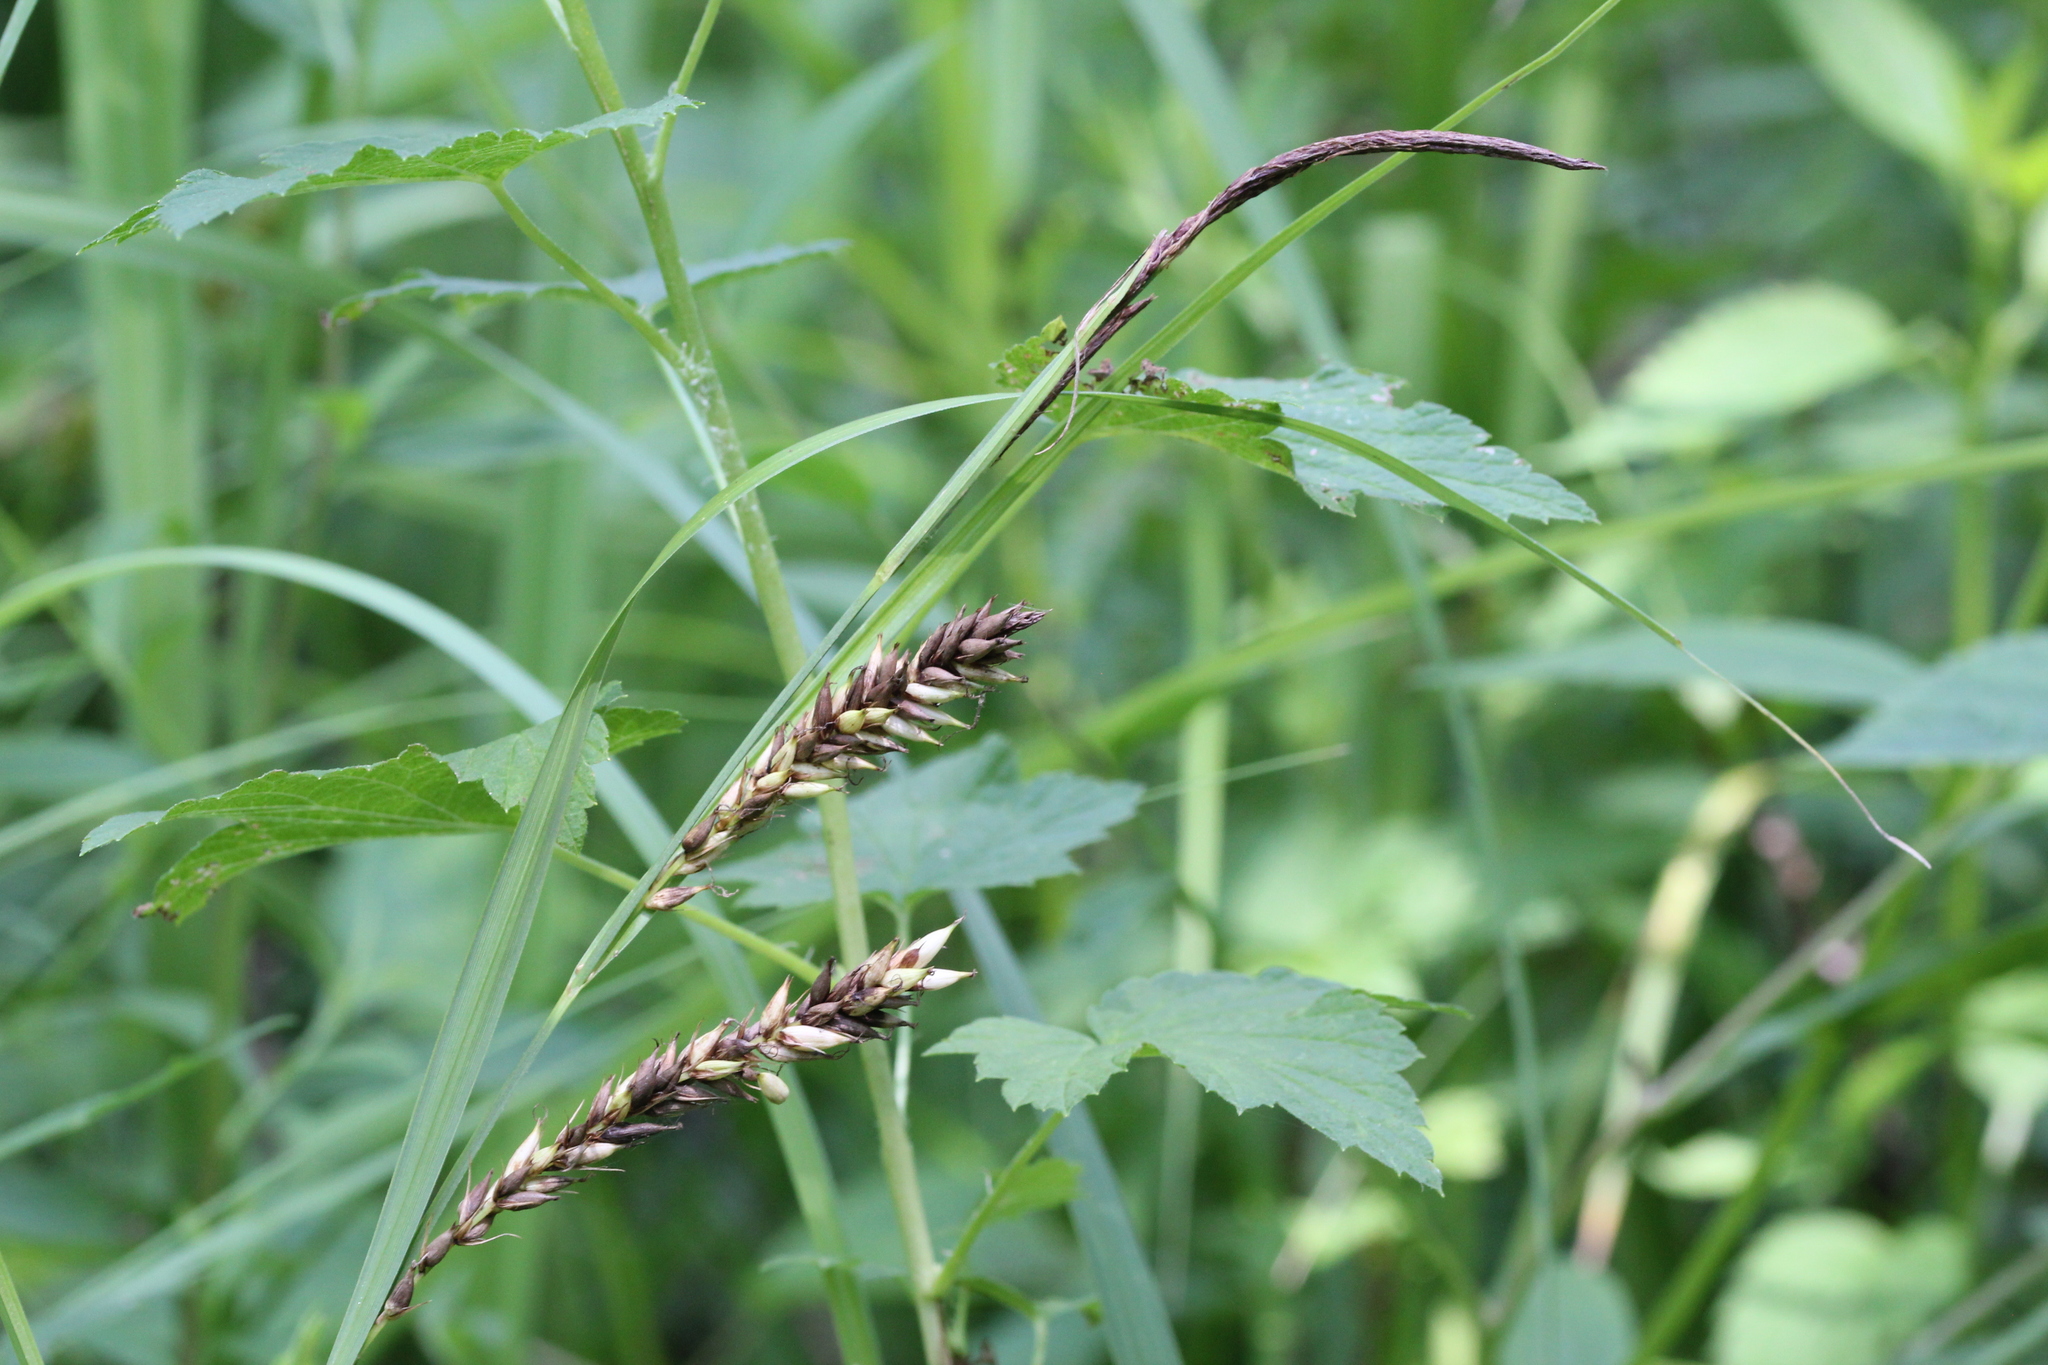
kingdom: Plantae
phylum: Tracheophyta
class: Liliopsida
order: Poales
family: Cyperaceae
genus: Carex
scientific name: Carex hyalinolepis
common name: Shoreline sedge
